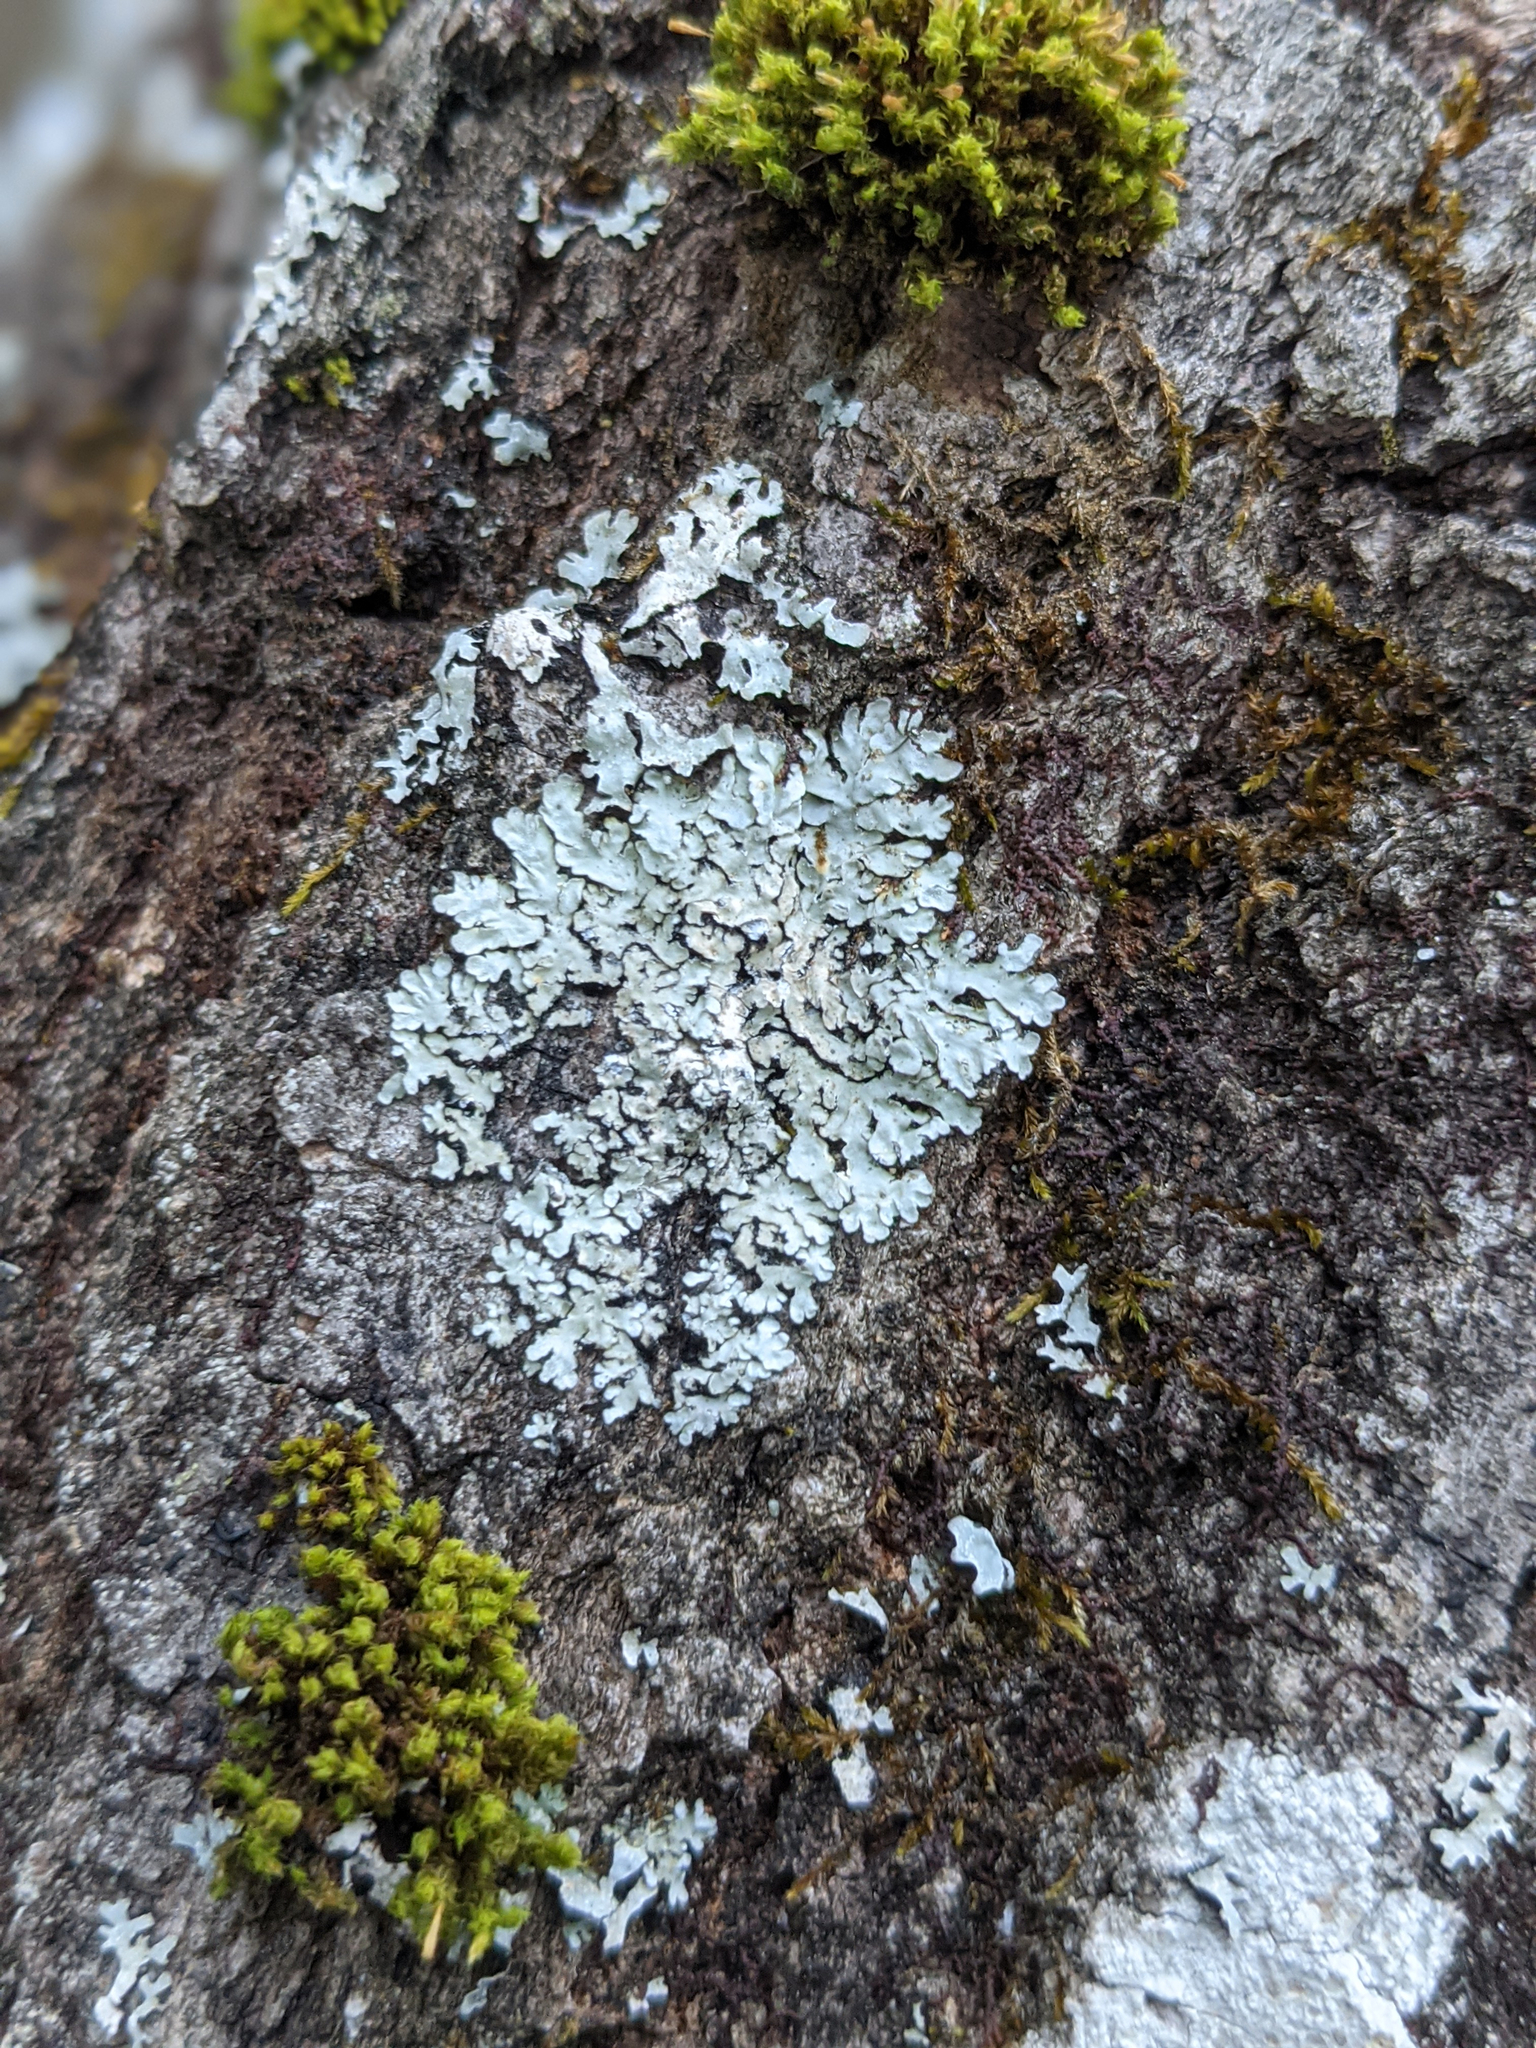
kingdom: Plantae
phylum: Bryophyta
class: Bryopsida
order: Orthotrichales
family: Orthotrichaceae
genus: Ulota
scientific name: Ulota crispa
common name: Crisped pincushion moss
